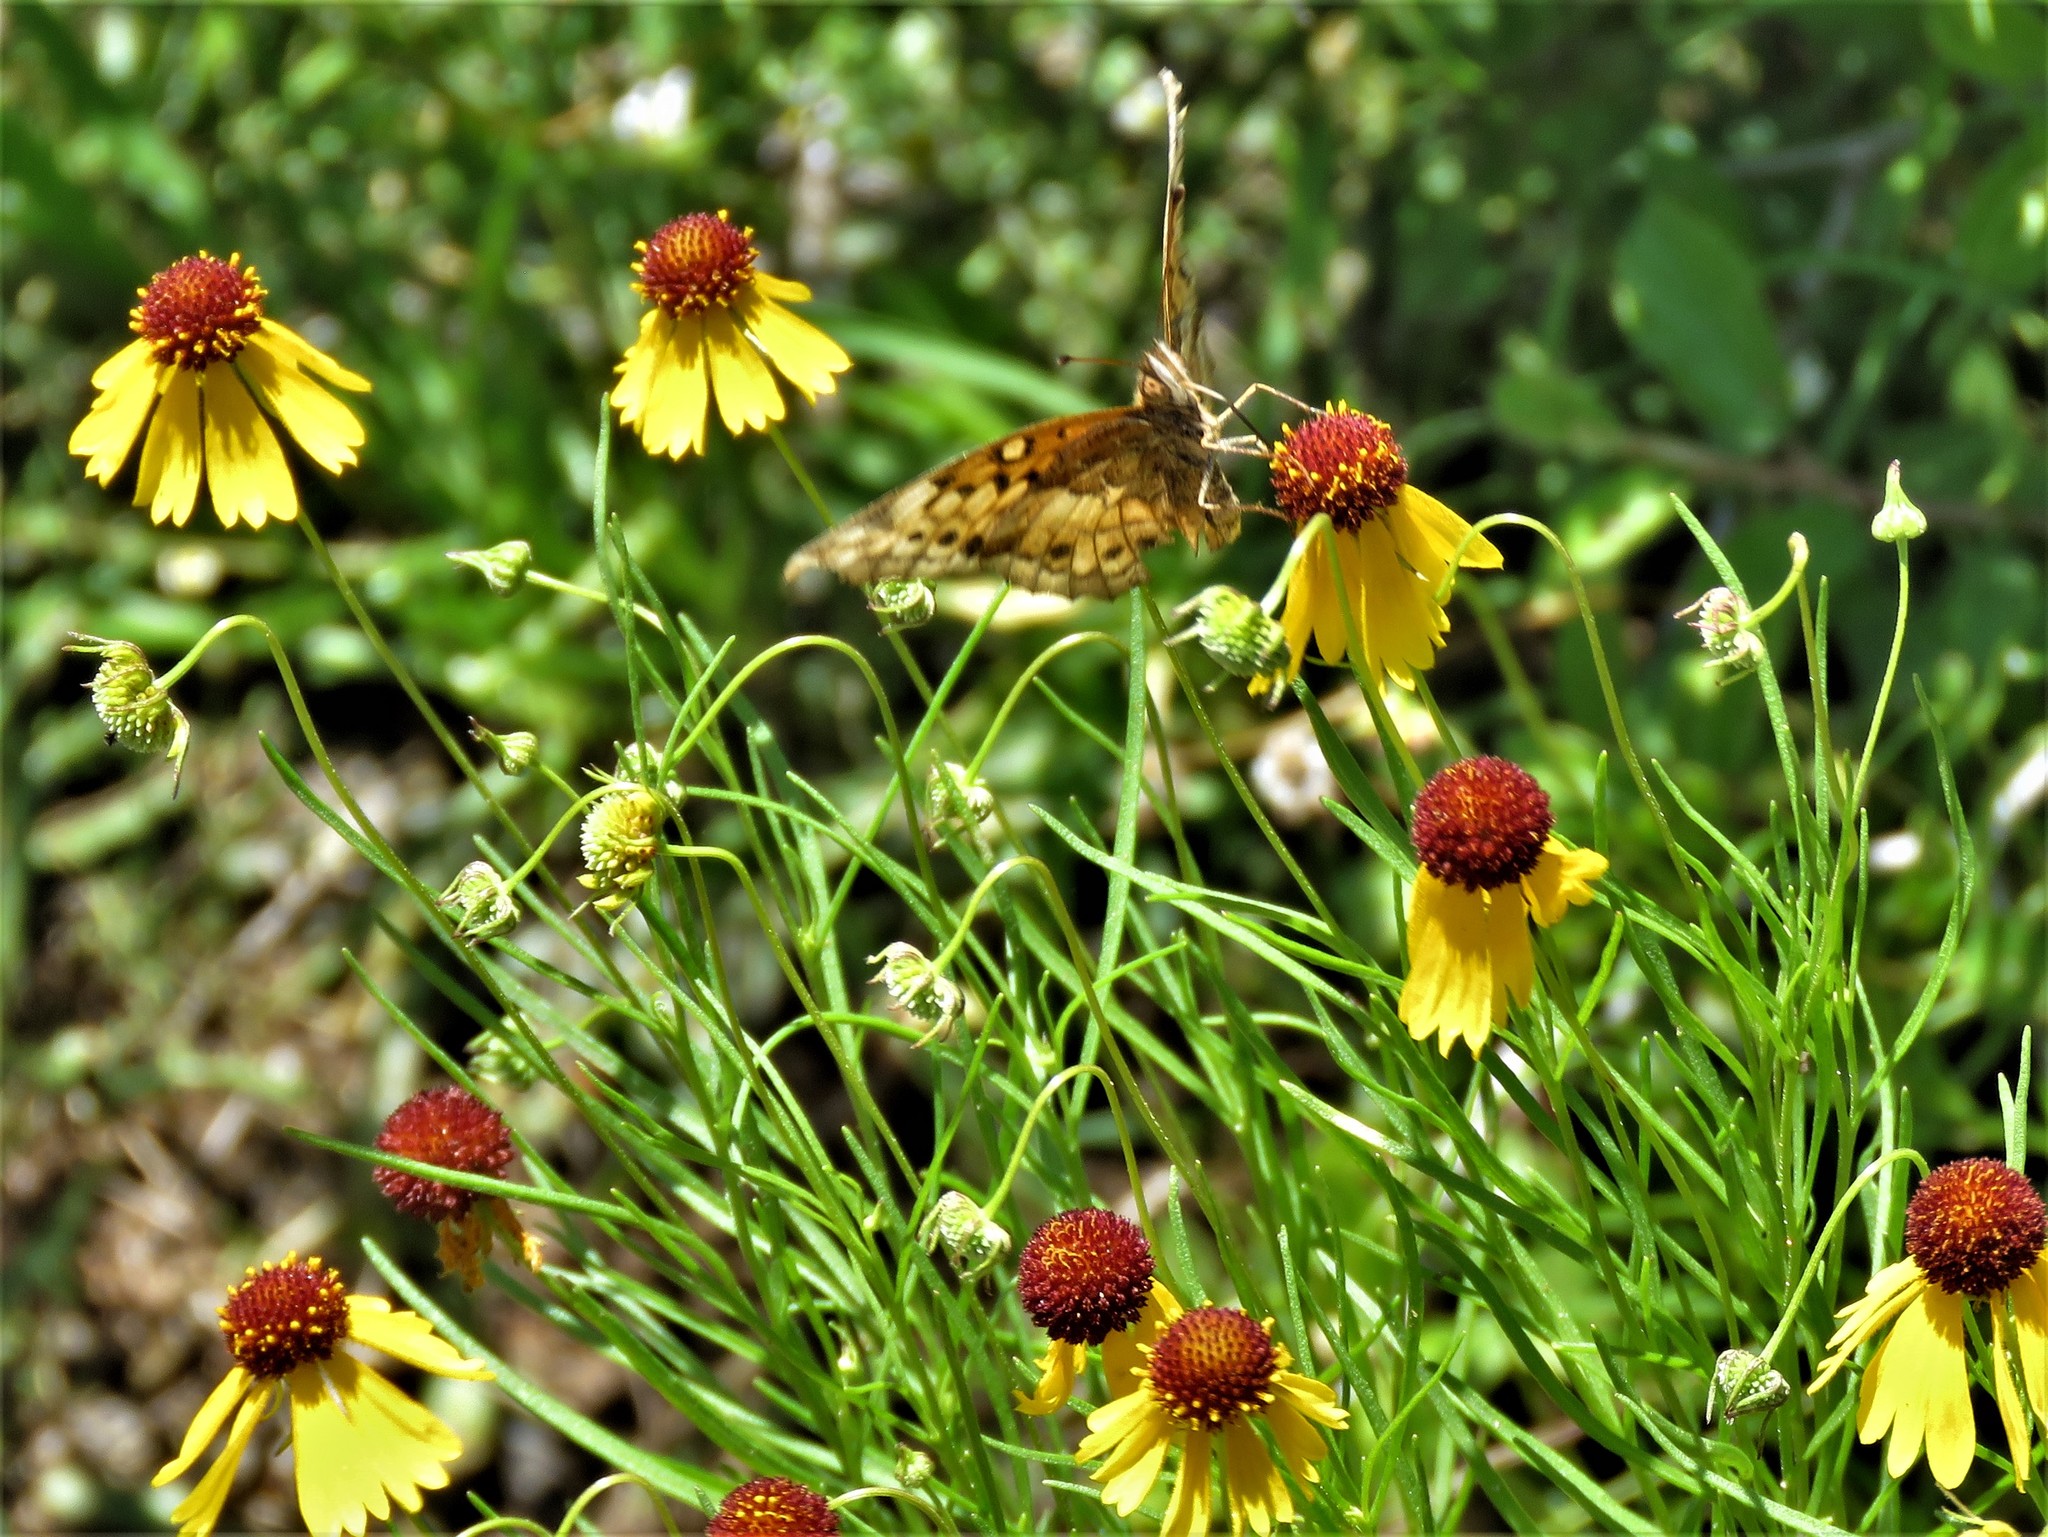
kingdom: Plantae
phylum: Tracheophyta
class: Magnoliopsida
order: Asterales
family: Asteraceae
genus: Helenium
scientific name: Helenium amarum
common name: Bitter sneezeweed
